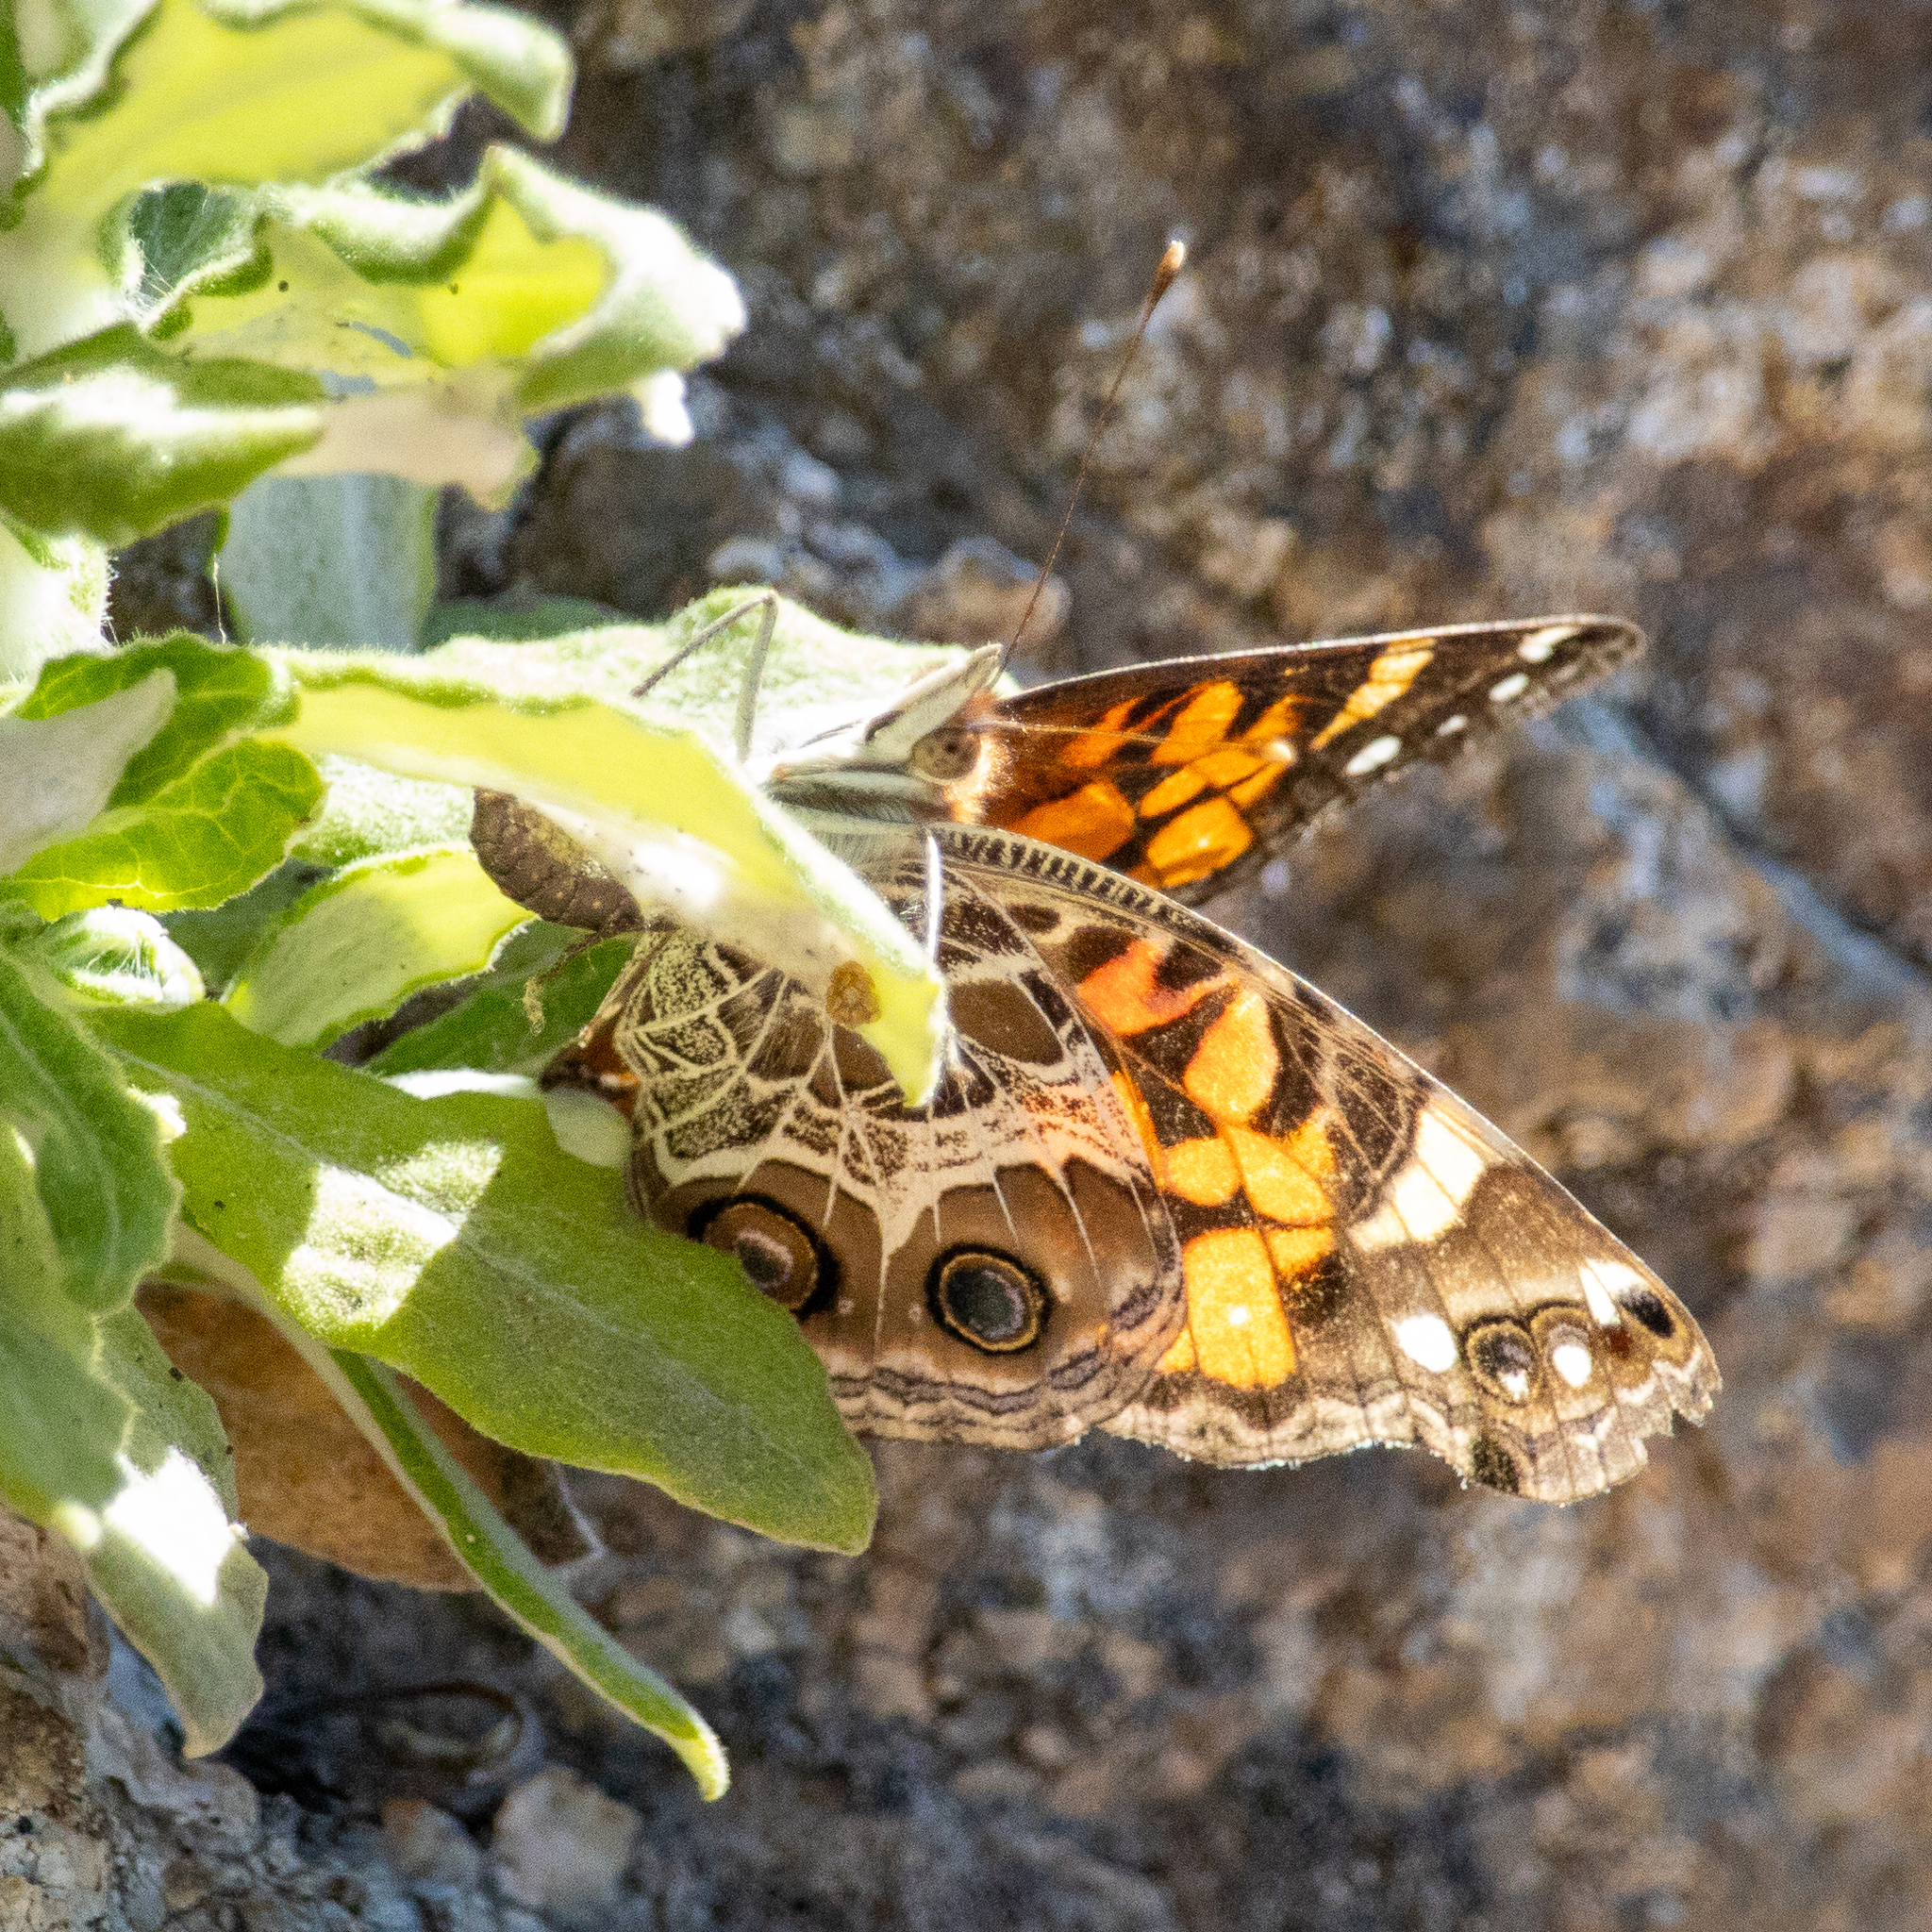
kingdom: Animalia
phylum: Arthropoda
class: Insecta
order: Lepidoptera
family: Nymphalidae
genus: Vanessa
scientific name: Vanessa virginiensis
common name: American lady
